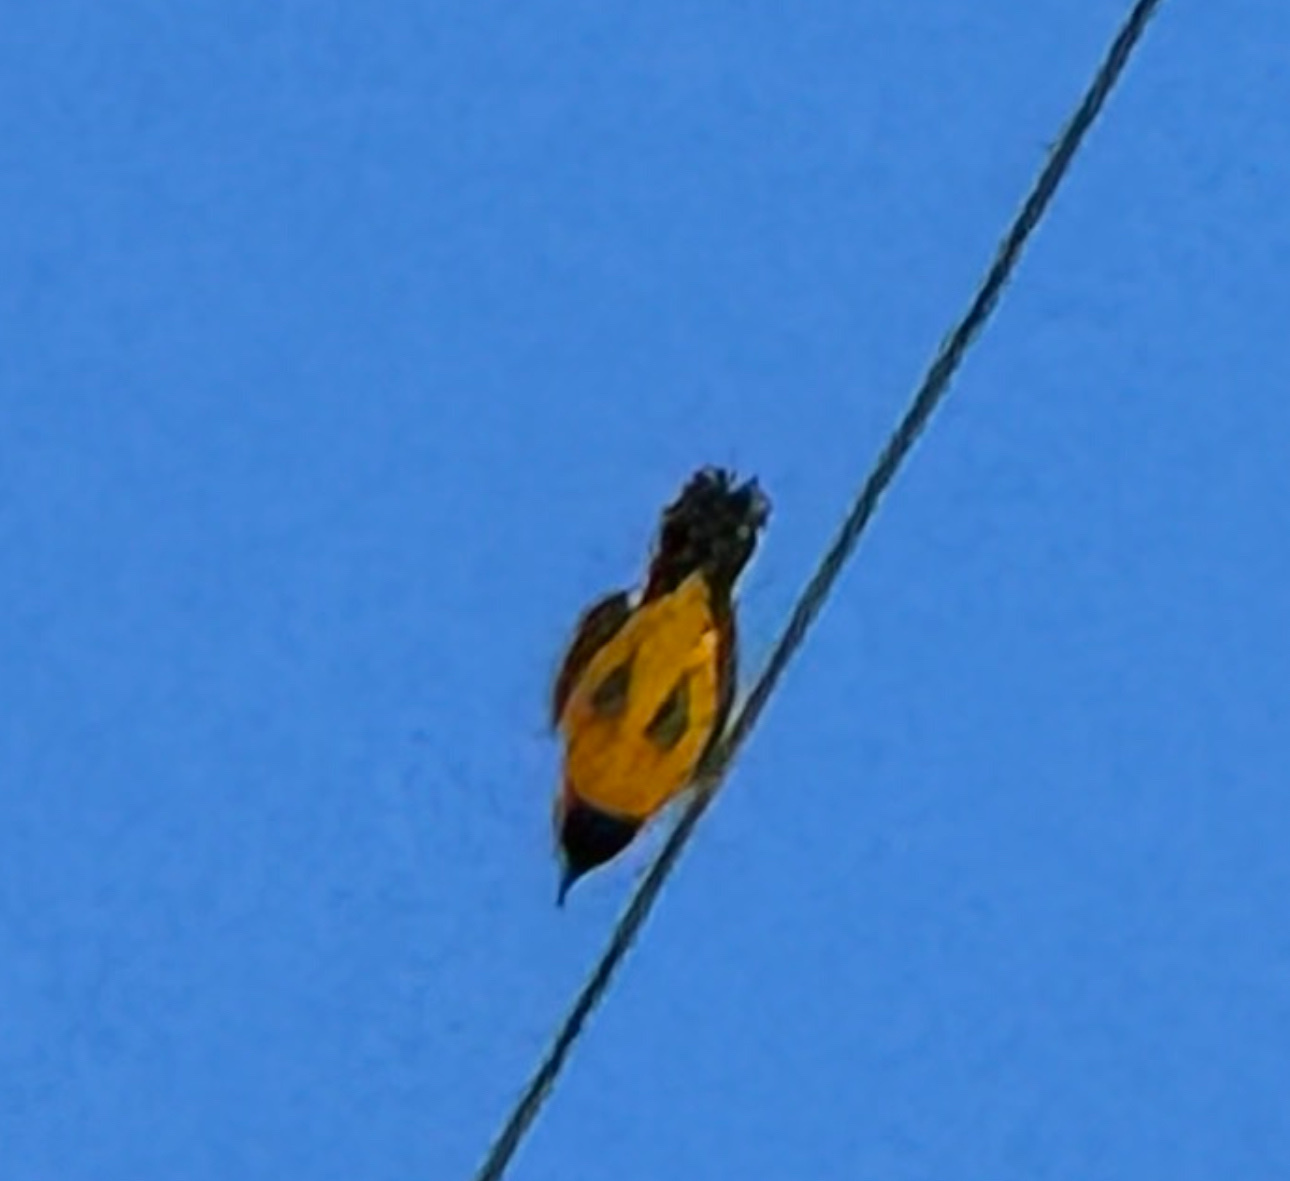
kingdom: Animalia
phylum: Chordata
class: Aves
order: Passeriformes
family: Icteridae
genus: Icterus
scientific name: Icterus cucullatus
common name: Hooded oriole
